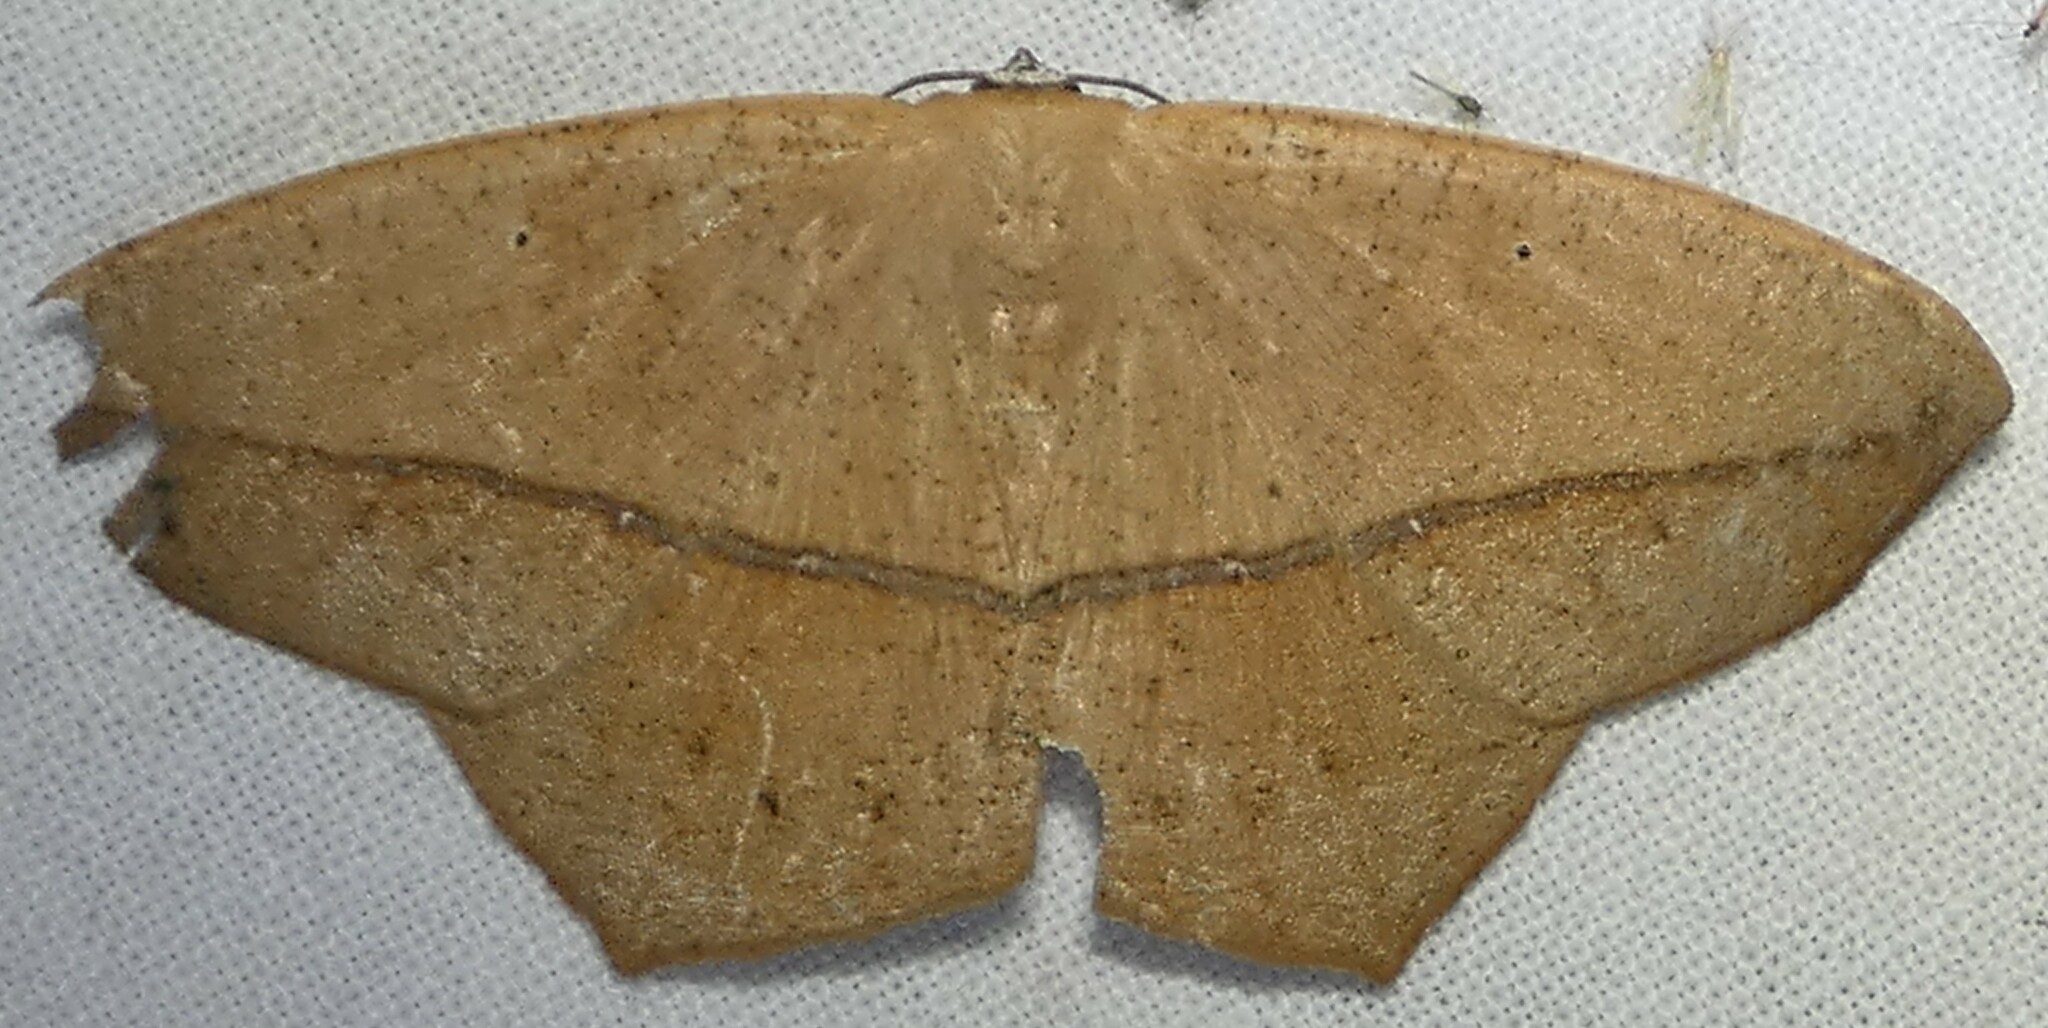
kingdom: Animalia
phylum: Arthropoda
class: Insecta
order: Lepidoptera
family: Geometridae
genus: Prochoerodes
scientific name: Prochoerodes lineola
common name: Large maple spanworm
